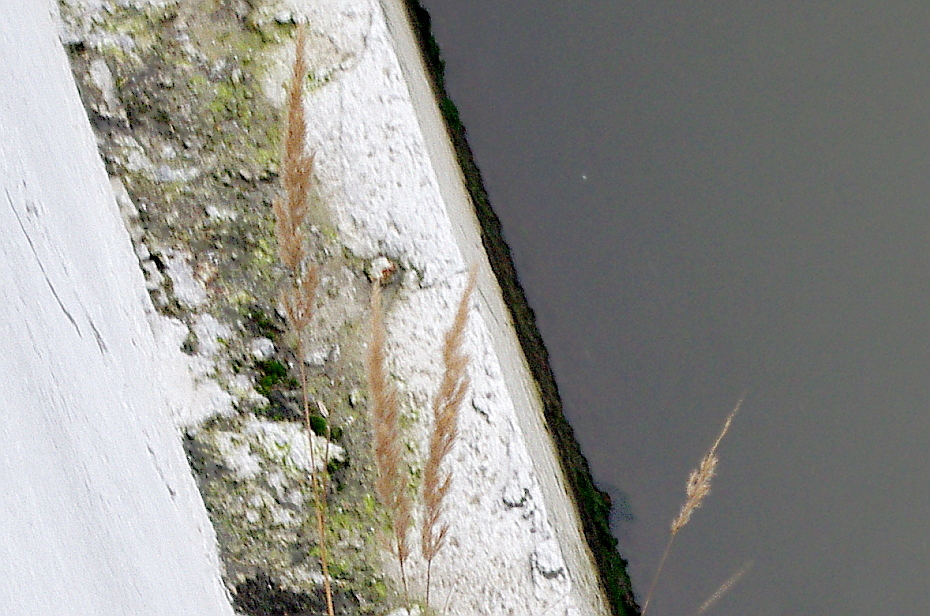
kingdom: Plantae
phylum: Tracheophyta
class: Liliopsida
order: Poales
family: Poaceae
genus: Calamagrostis
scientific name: Calamagrostis epigejos
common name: Wood small-reed
